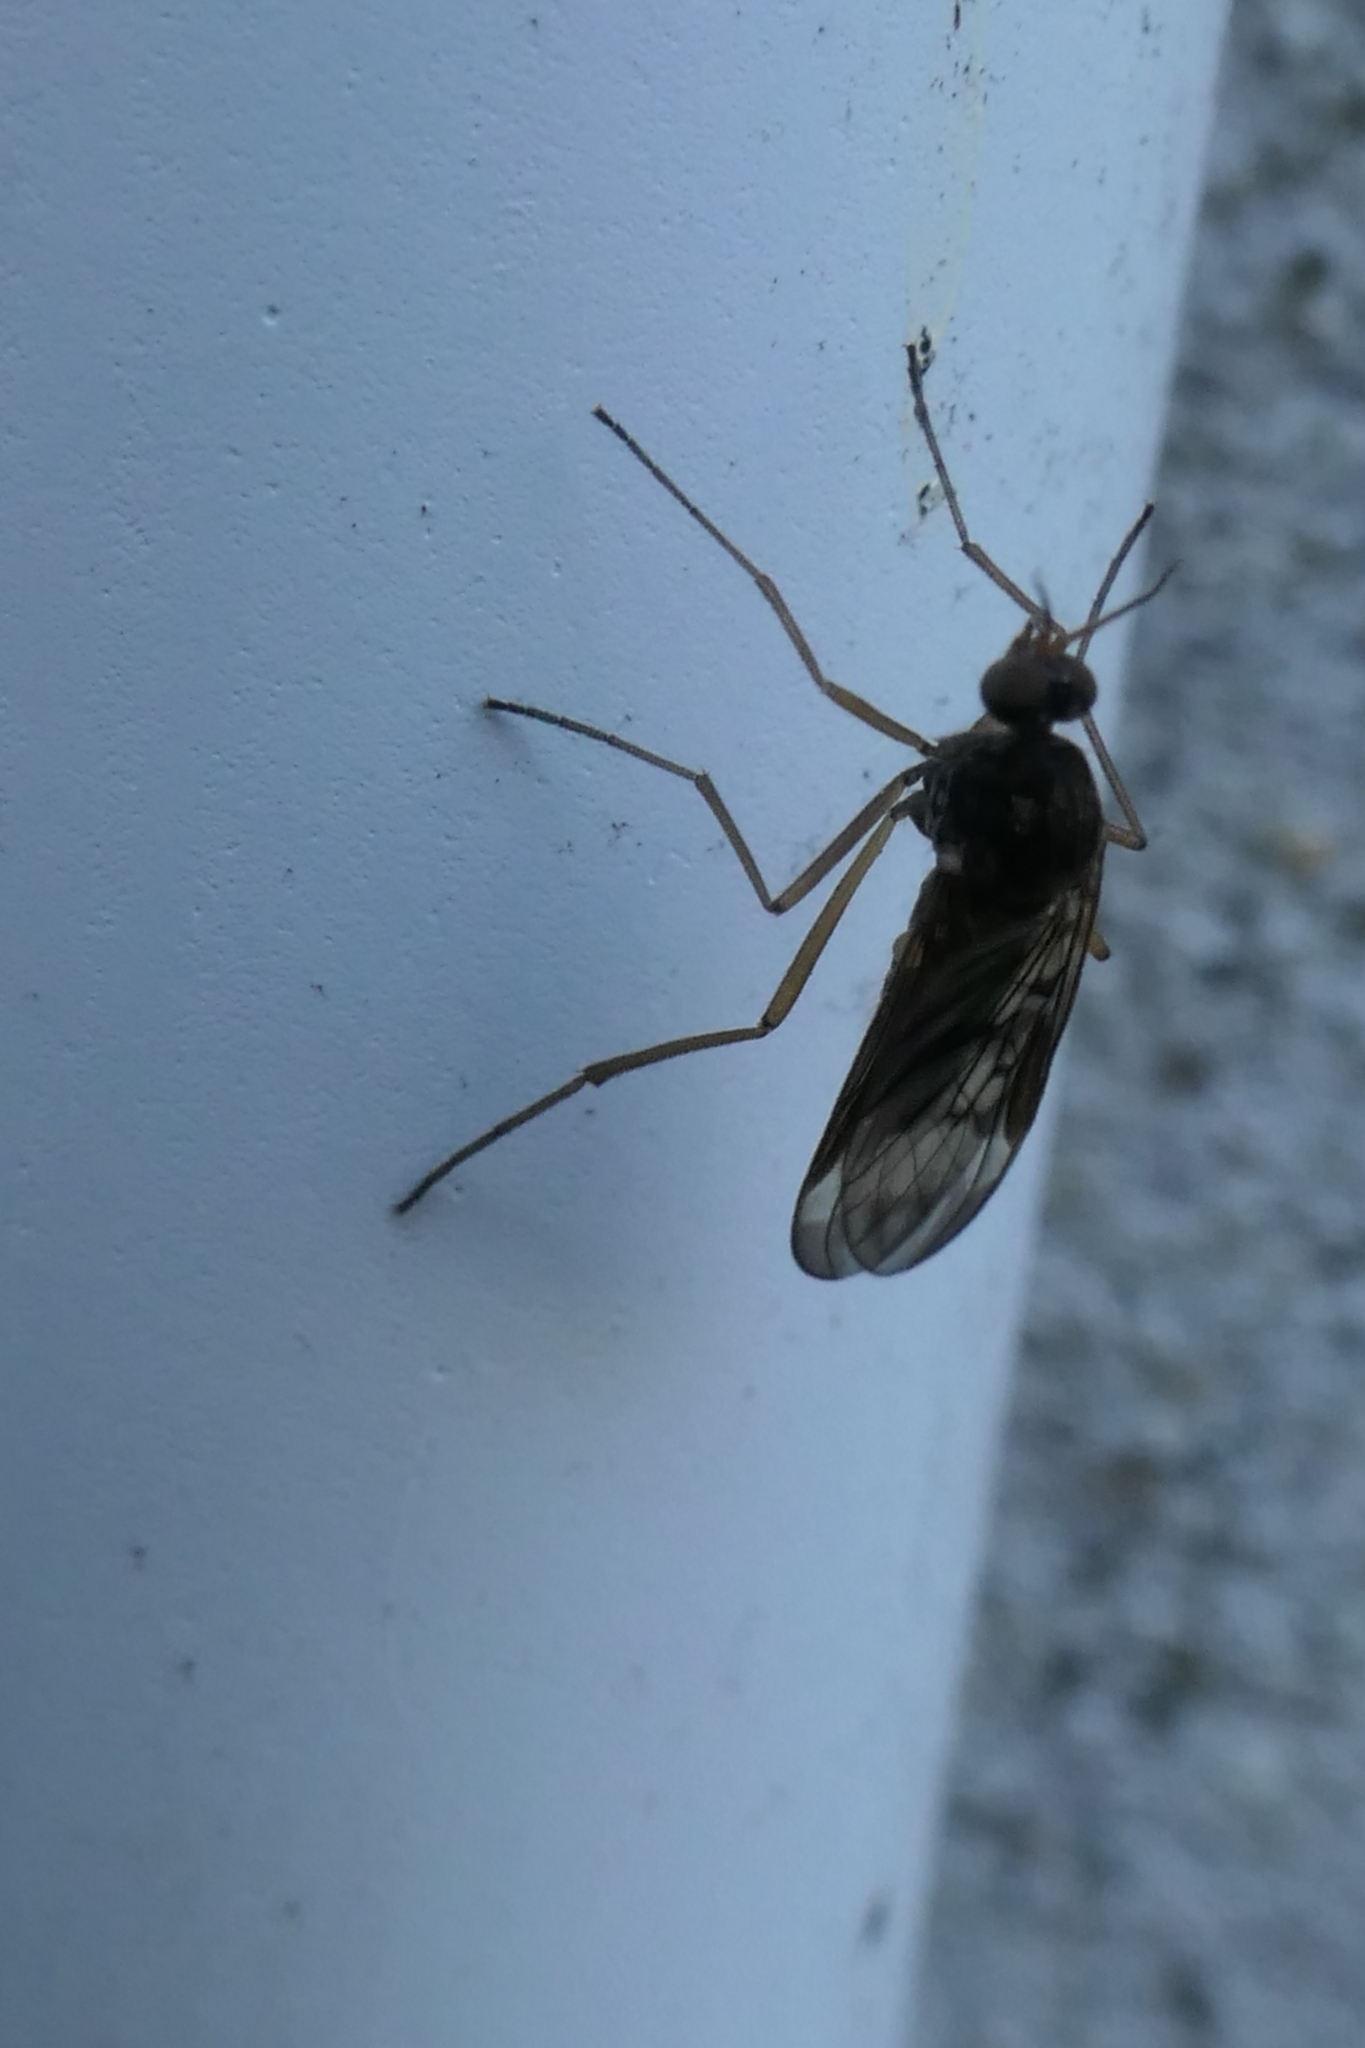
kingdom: Animalia
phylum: Arthropoda
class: Insecta
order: Diptera
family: Anisopodidae
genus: Sylvicola
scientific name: Sylvicola neozelandicus
